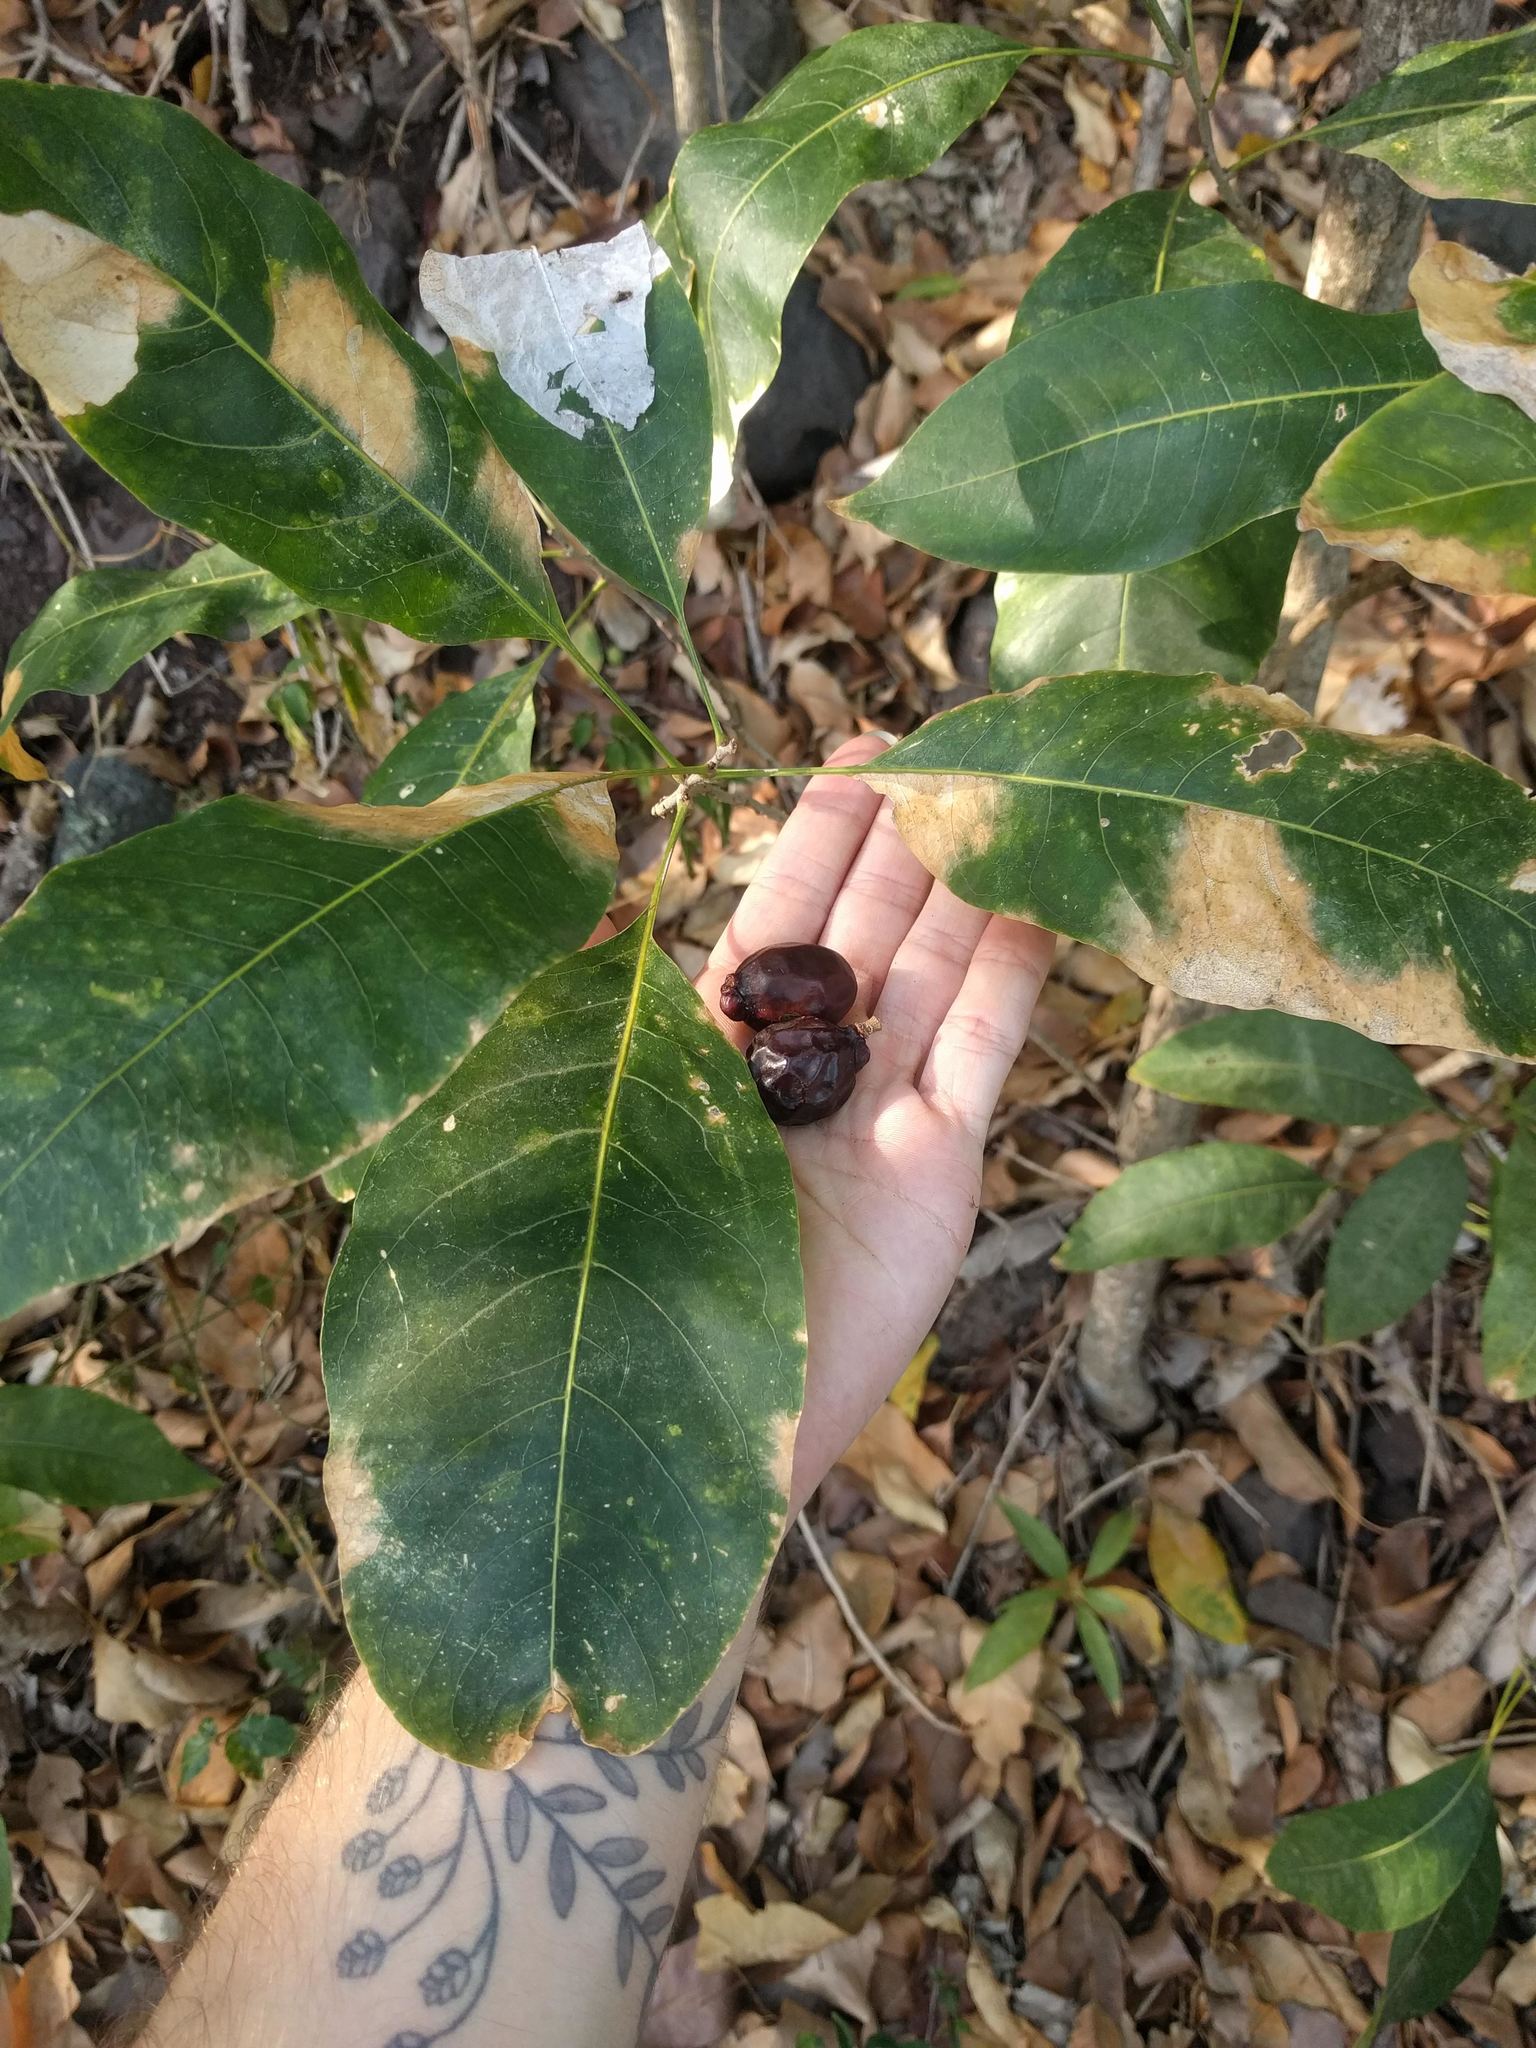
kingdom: Plantae
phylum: Tracheophyta
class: Magnoliopsida
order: Sapindales
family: Sapindaceae
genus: Sapindus
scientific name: Sapindus oahuensis
